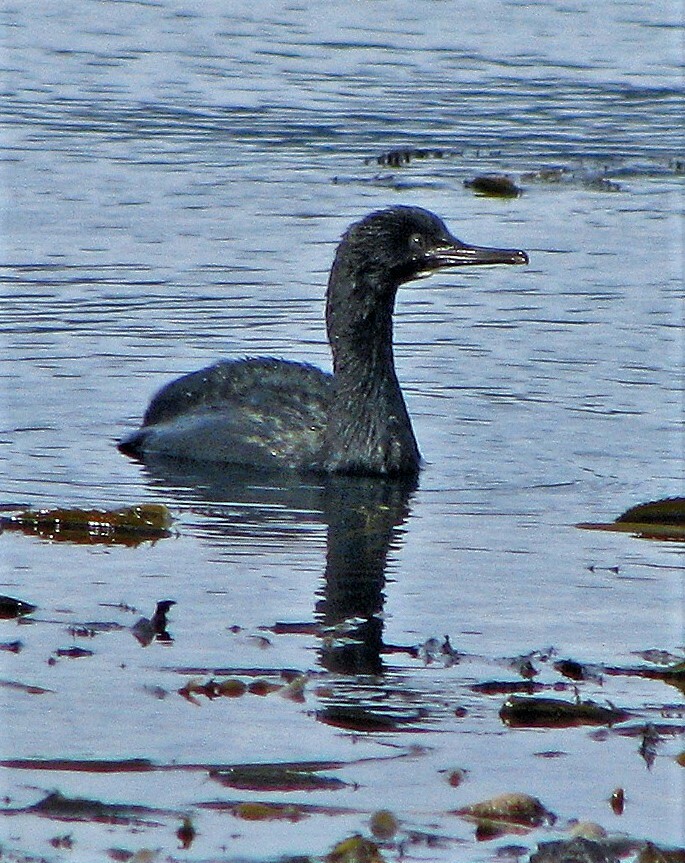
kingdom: Animalia
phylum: Chordata
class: Aves
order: Suliformes
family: Phalacrocoracidae
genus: Phalacrocorax
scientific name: Phalacrocorax magellanicus
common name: Rock shag
